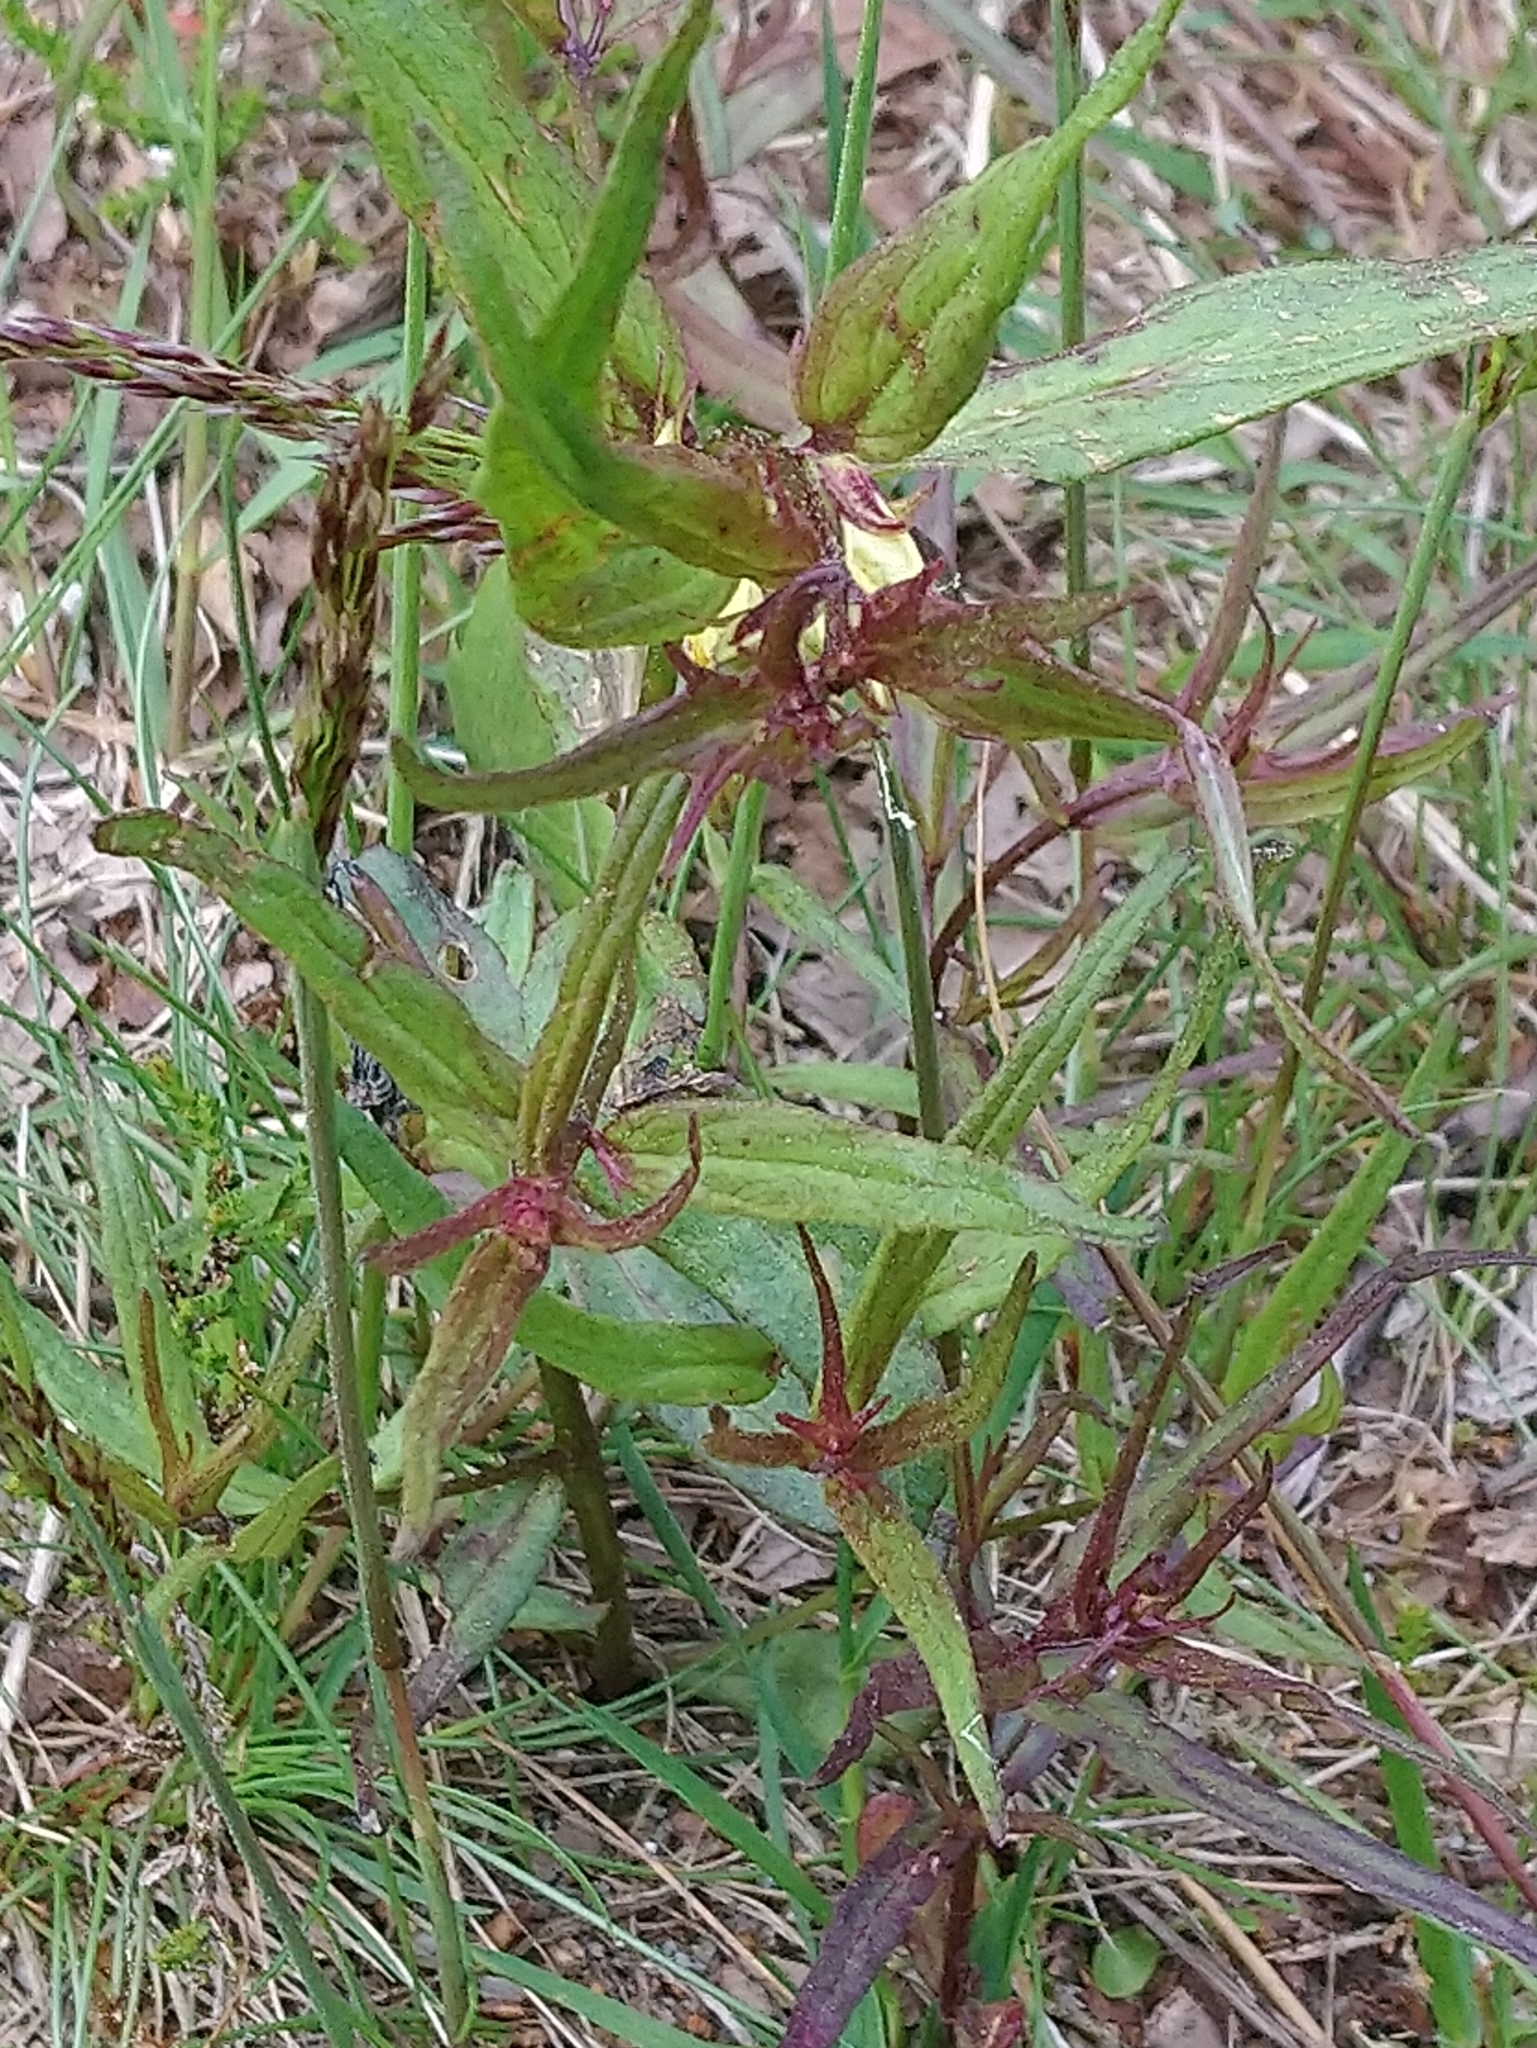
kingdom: Plantae
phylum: Tracheophyta
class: Magnoliopsida
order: Lamiales
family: Orobanchaceae
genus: Melampyrum
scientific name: Melampyrum pratense
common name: Common cow-wheat
